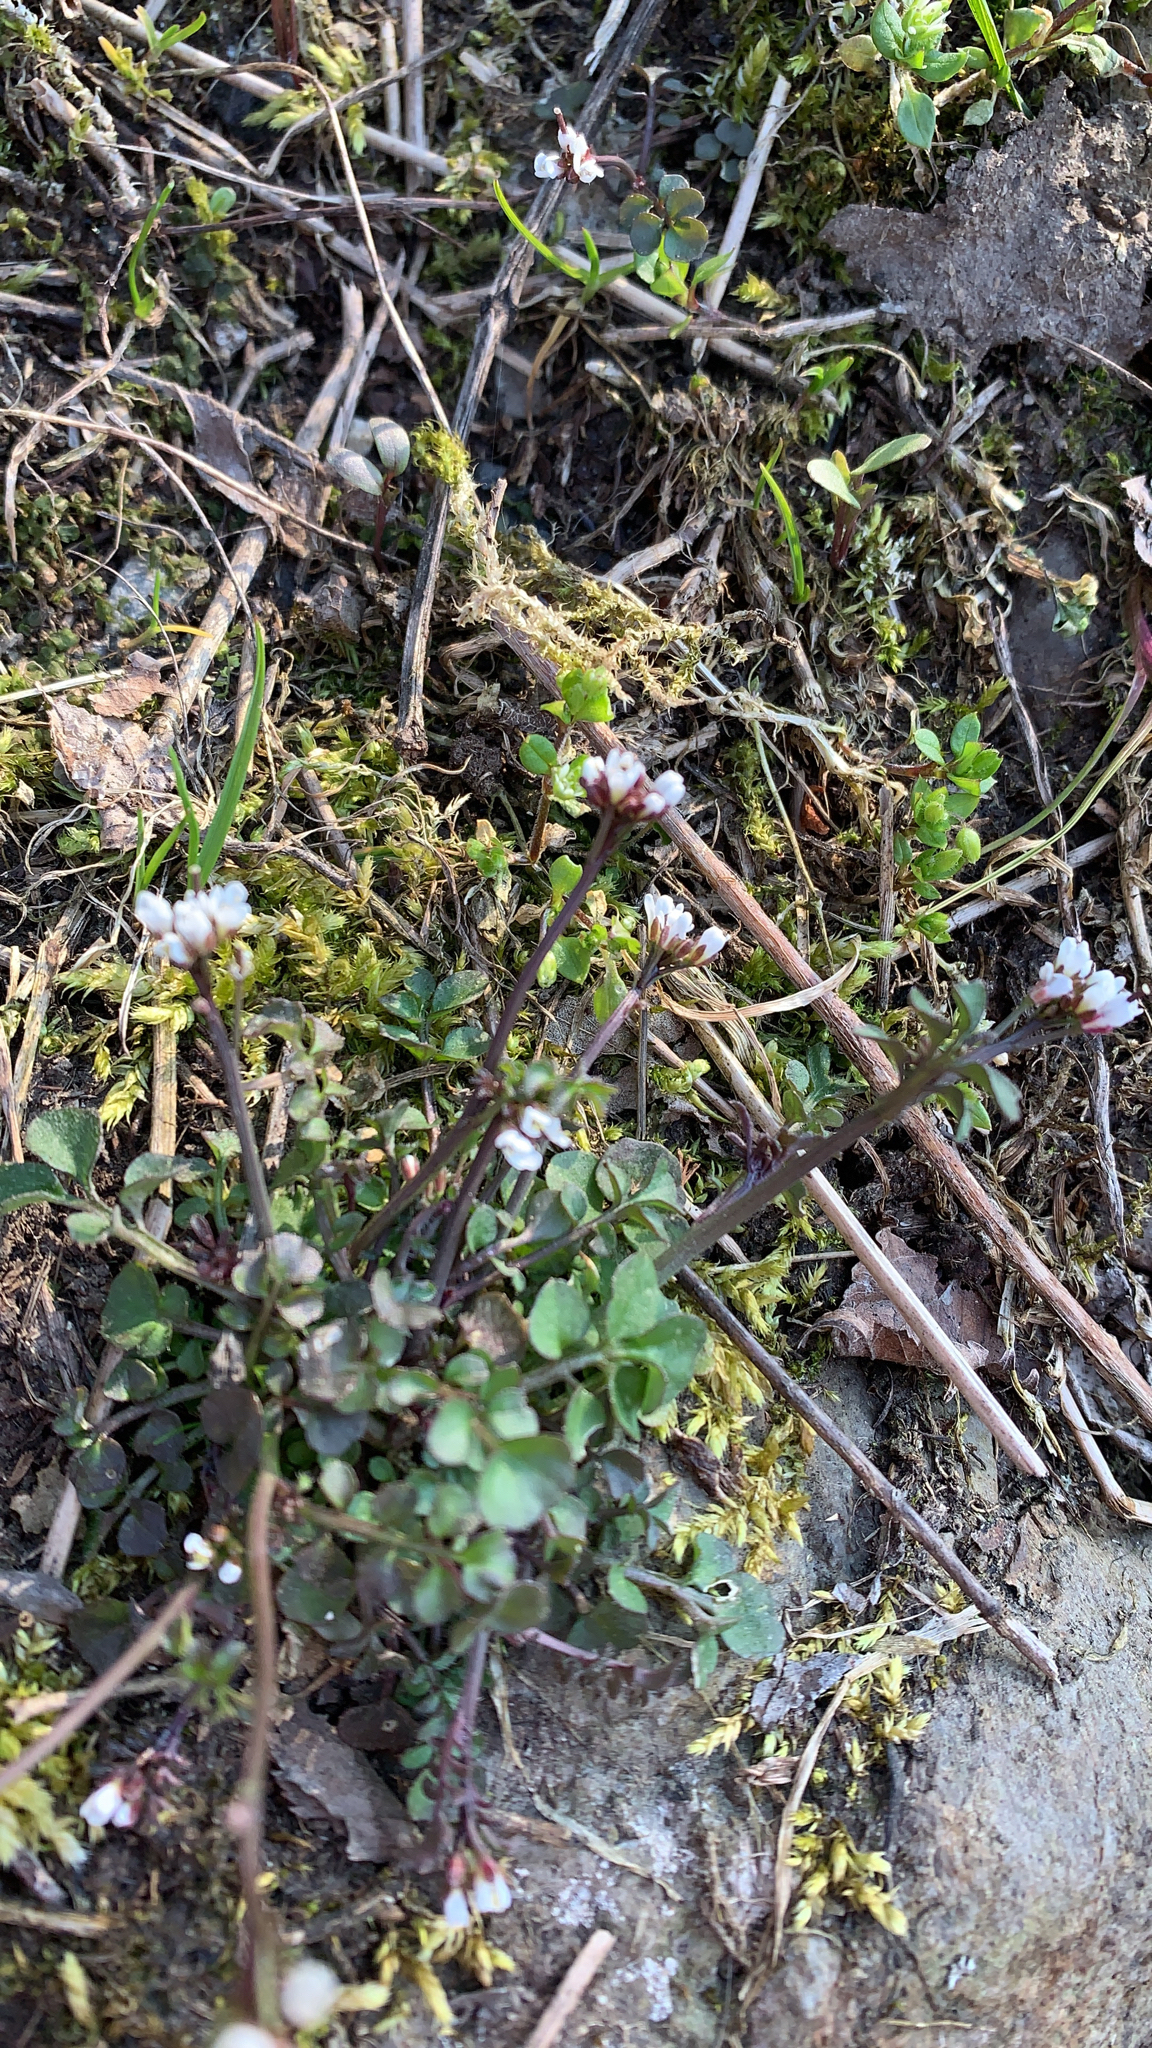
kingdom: Plantae
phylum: Tracheophyta
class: Magnoliopsida
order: Brassicales
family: Brassicaceae
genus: Cardamine
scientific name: Cardamine hirsuta
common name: Hairy bittercress
